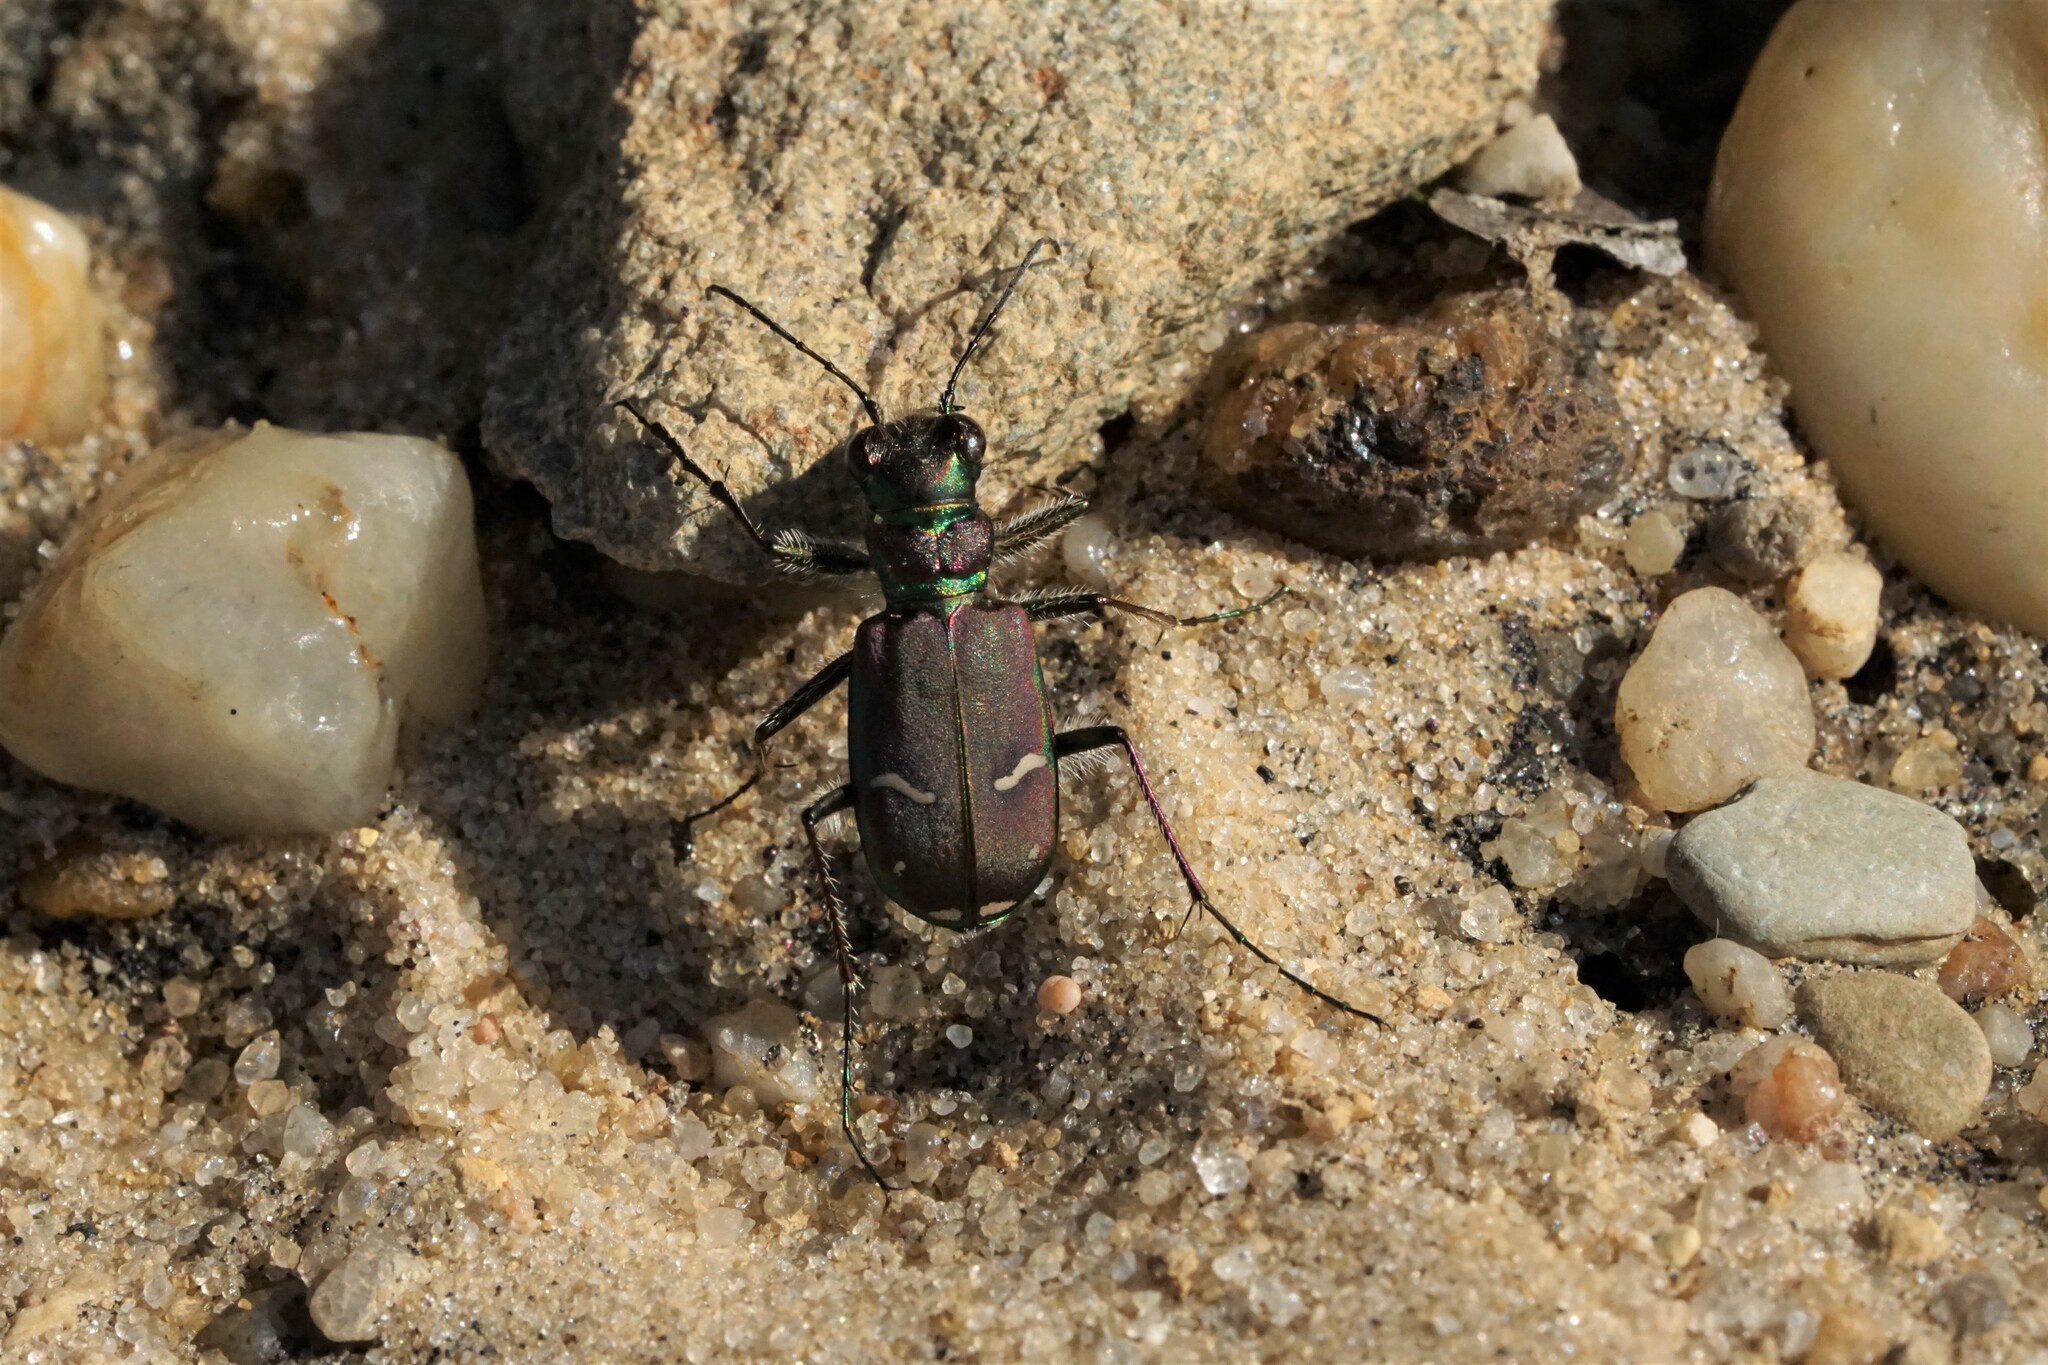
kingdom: Animalia
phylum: Arthropoda
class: Insecta
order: Coleoptera
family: Carabidae
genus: Cicindela
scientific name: Cicindela purpurea
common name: Cow path tiger beetle
